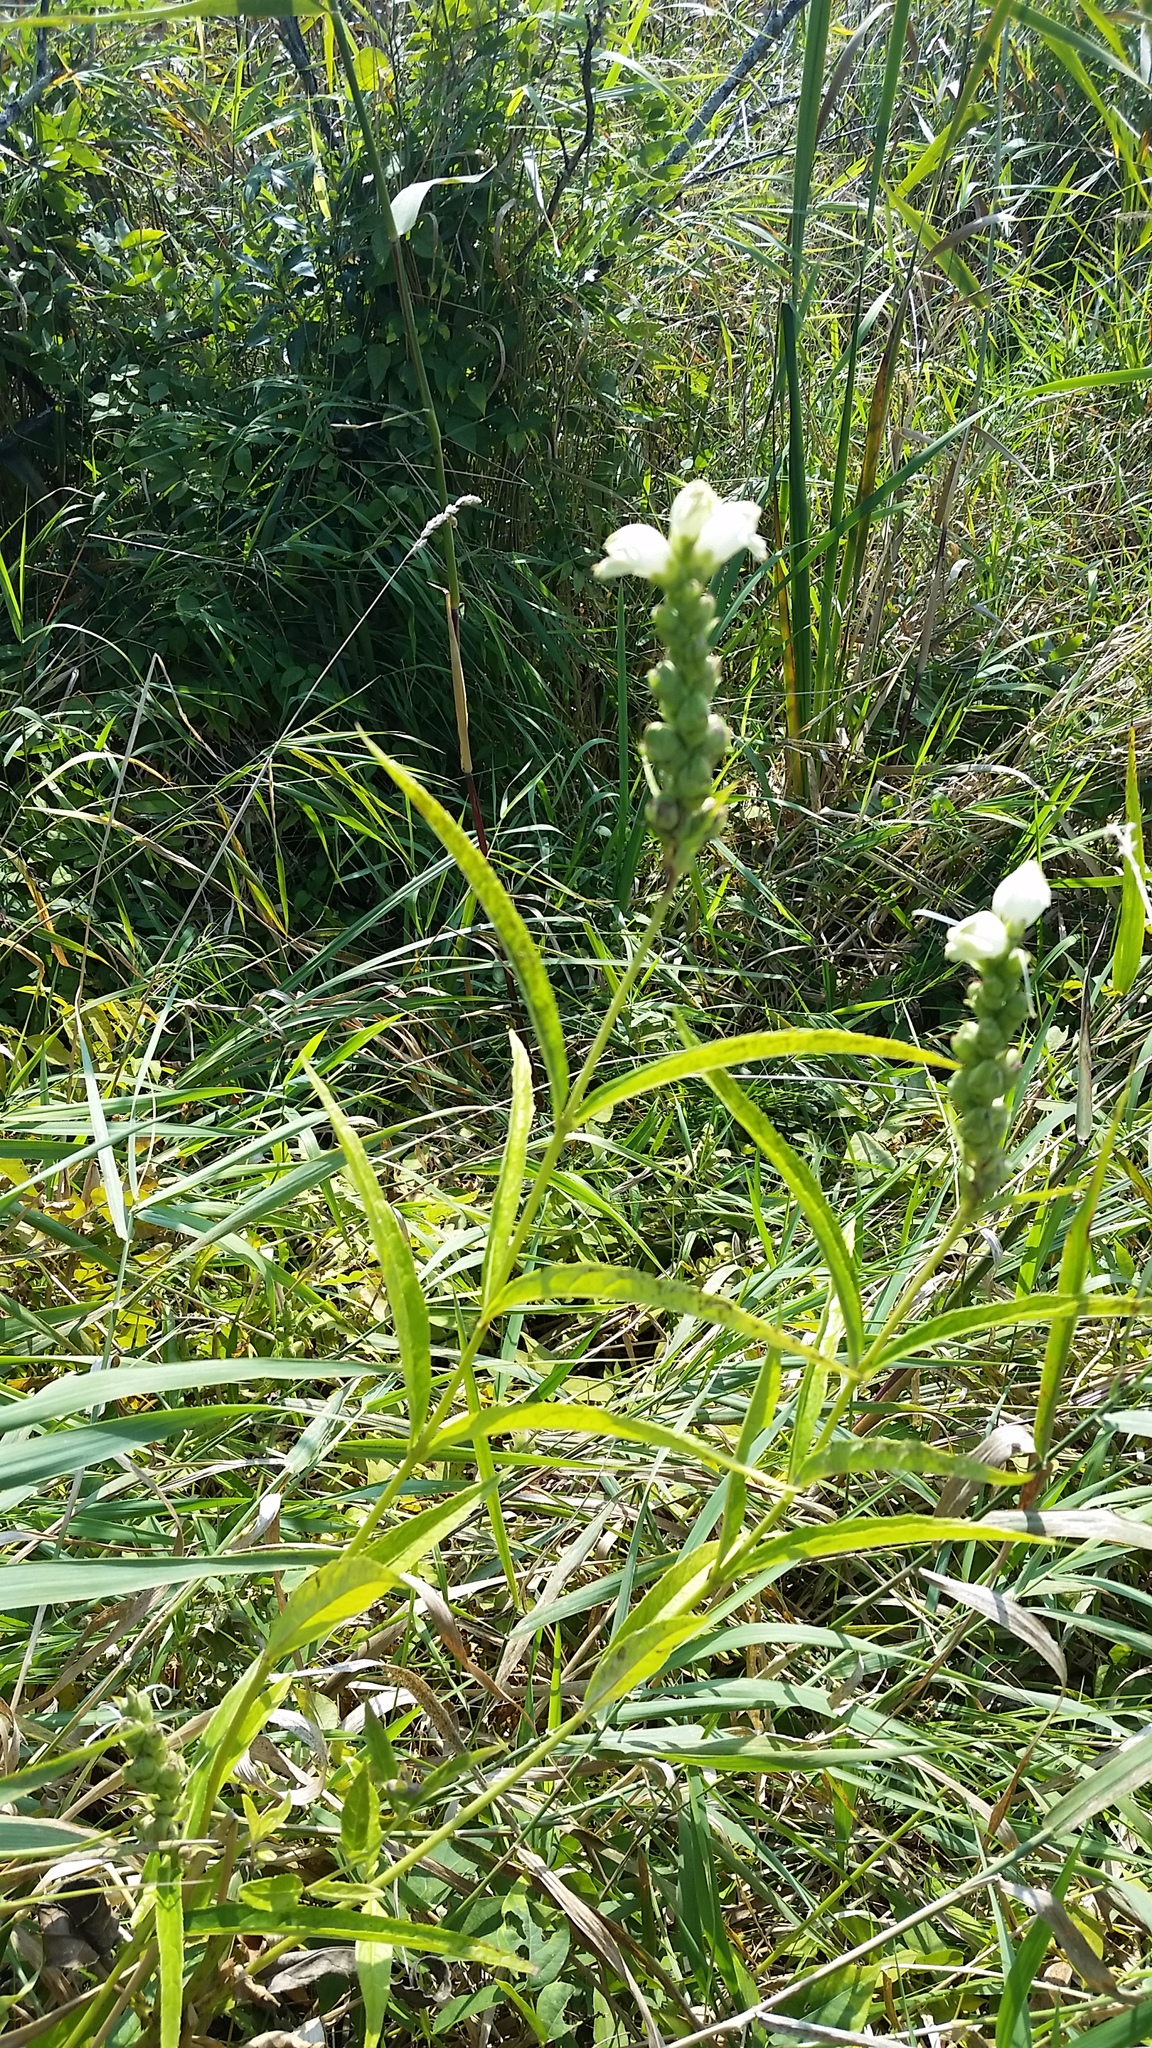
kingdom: Plantae
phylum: Tracheophyta
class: Magnoliopsida
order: Lamiales
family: Plantaginaceae
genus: Chelone
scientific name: Chelone glabra
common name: Snakehead
